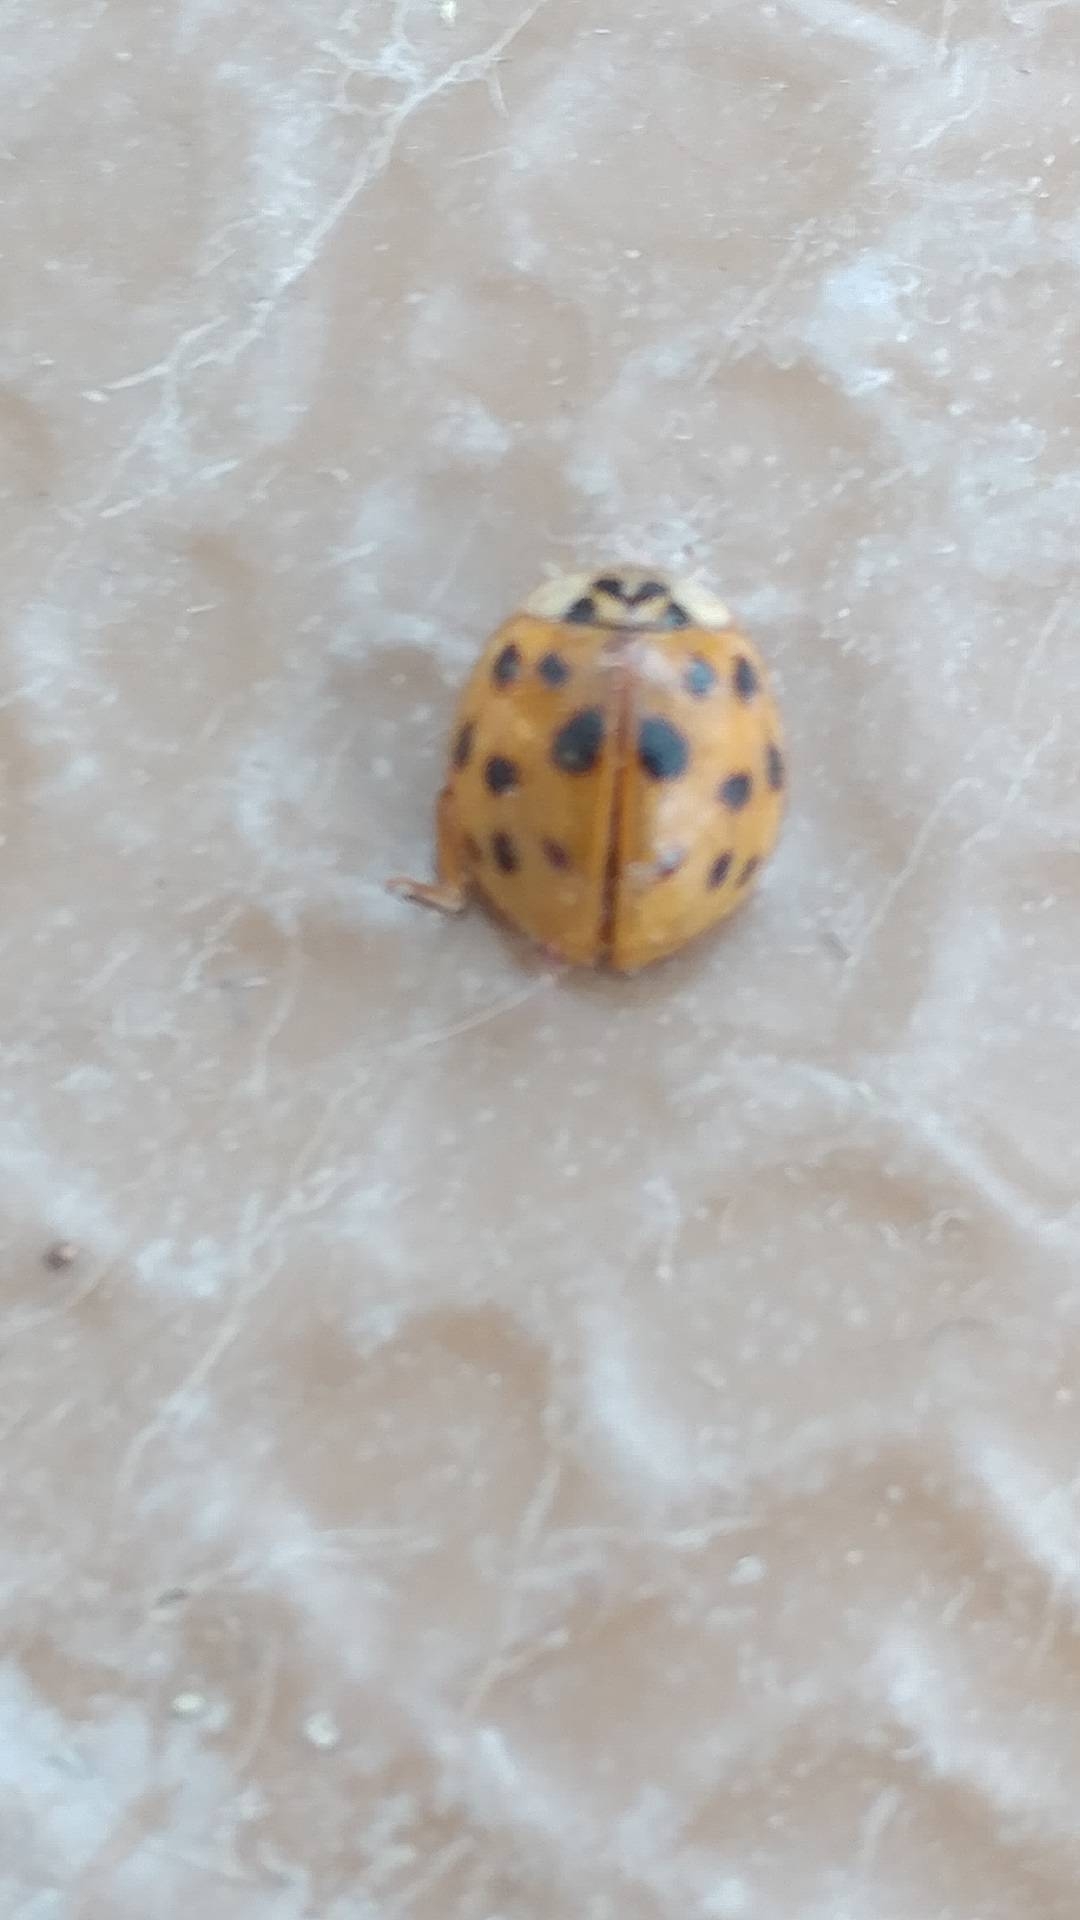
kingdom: Animalia
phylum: Arthropoda
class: Insecta
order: Coleoptera
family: Coccinellidae
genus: Harmonia
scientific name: Harmonia axyridis
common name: Harlequin ladybird
